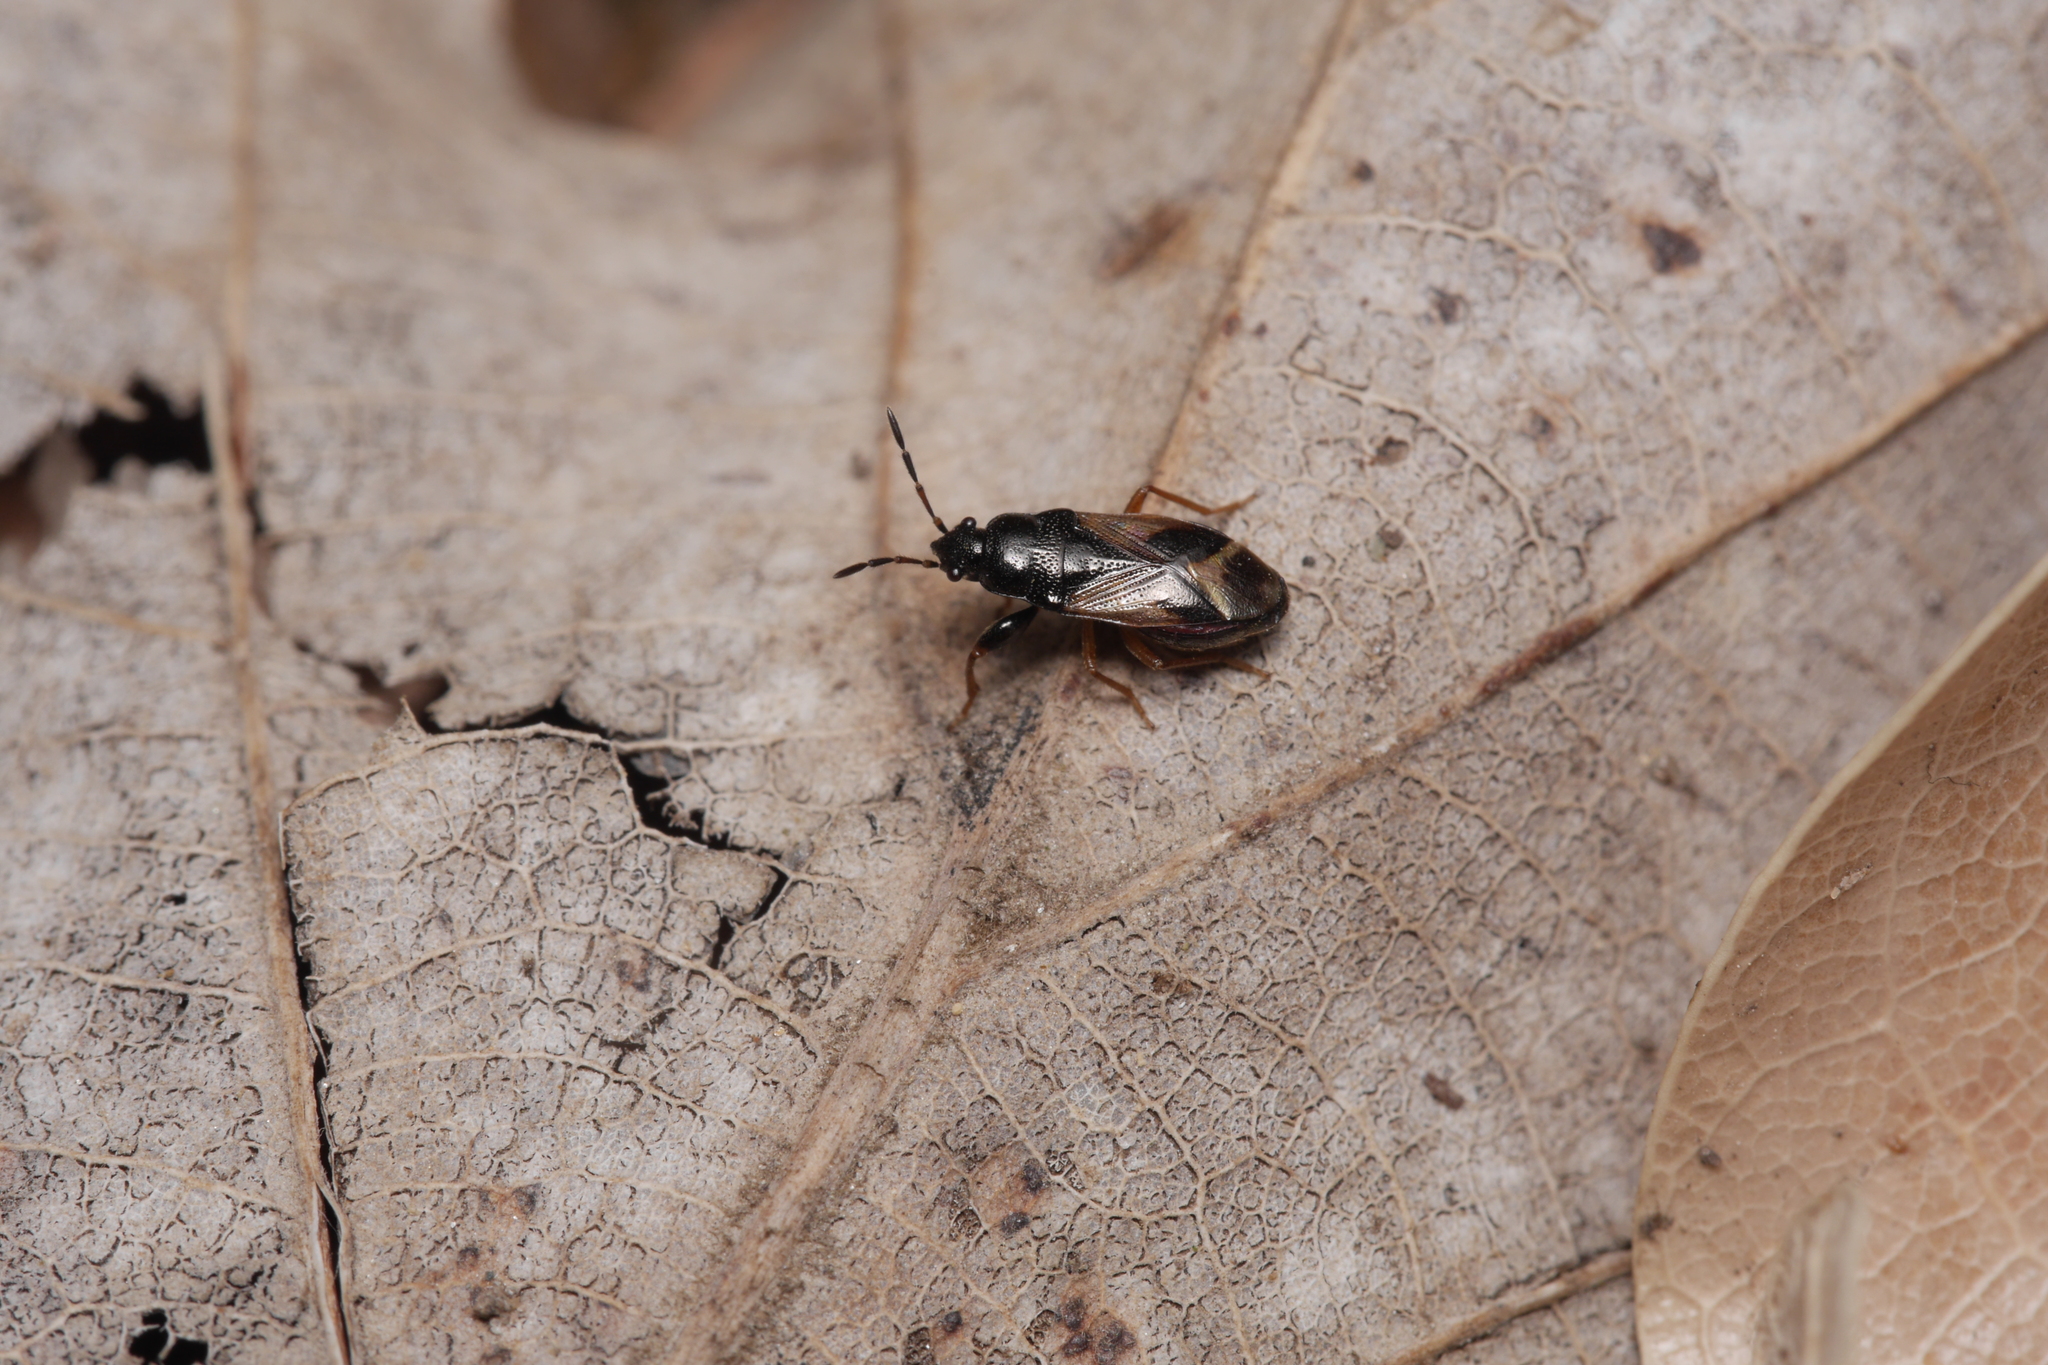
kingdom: Animalia
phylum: Arthropoda
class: Insecta
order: Hemiptera
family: Rhyparochromidae
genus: Megalonotus
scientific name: Megalonotus praetextatus
